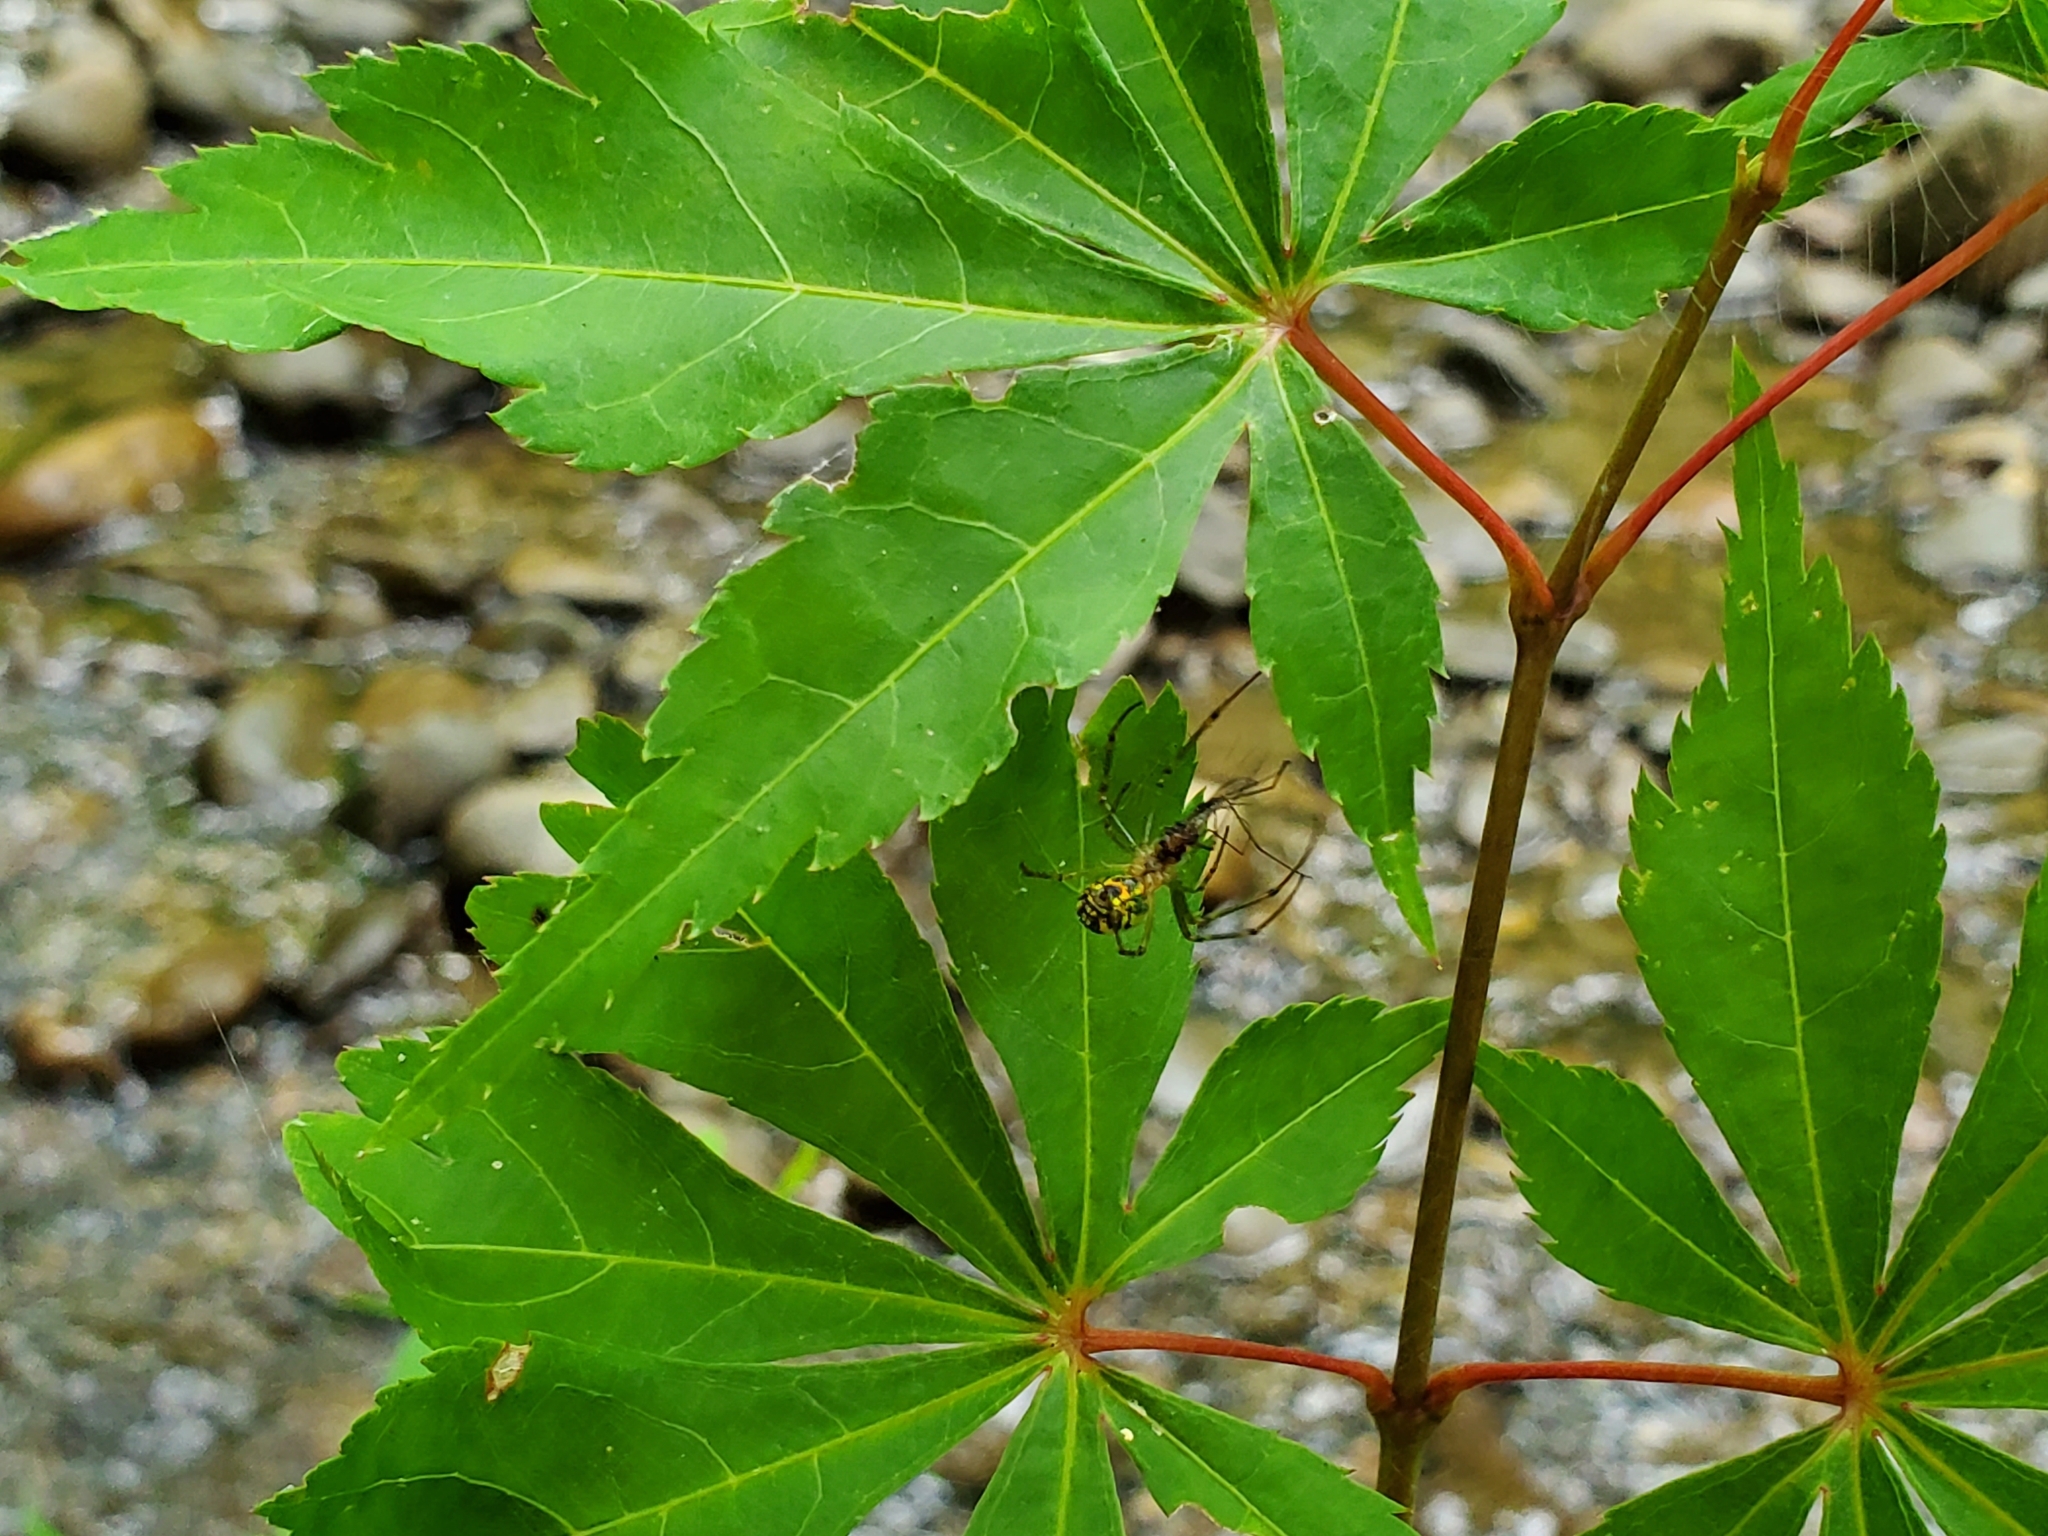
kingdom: Animalia
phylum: Arthropoda
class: Arachnida
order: Araneae
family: Tetragnathidae
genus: Leucauge
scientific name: Leucauge venusta
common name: Longjawed orb weavers
